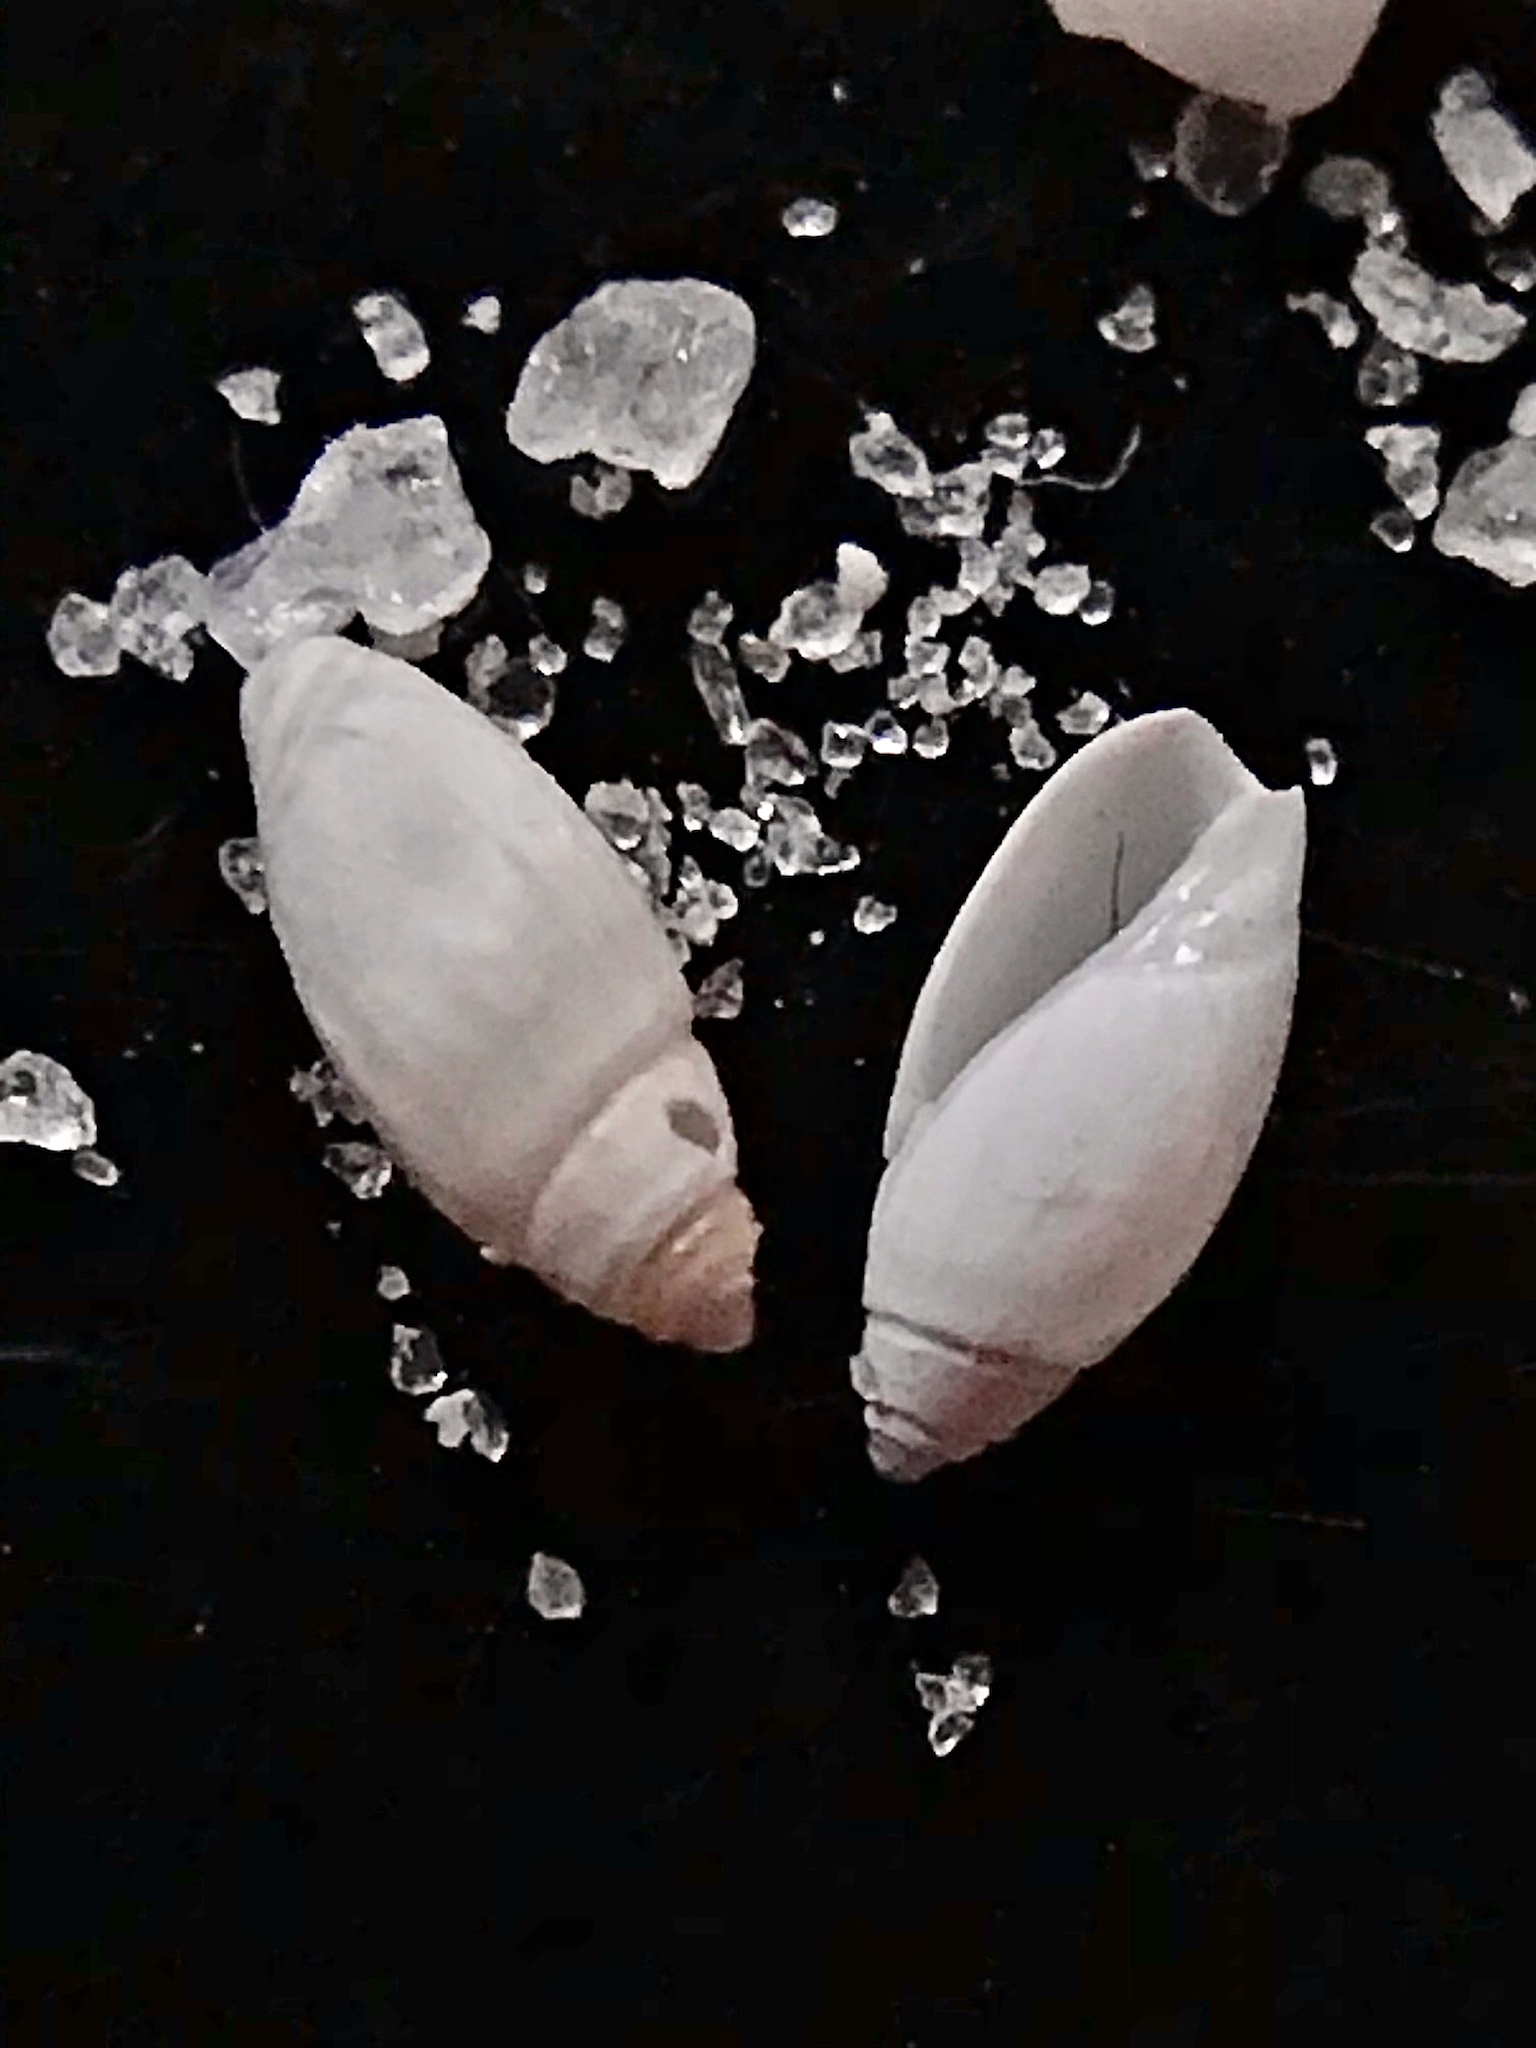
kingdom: Animalia
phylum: Mollusca
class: Gastropoda
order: Neogastropoda
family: Olividae
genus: Olivella
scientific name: Olivella pusilla
